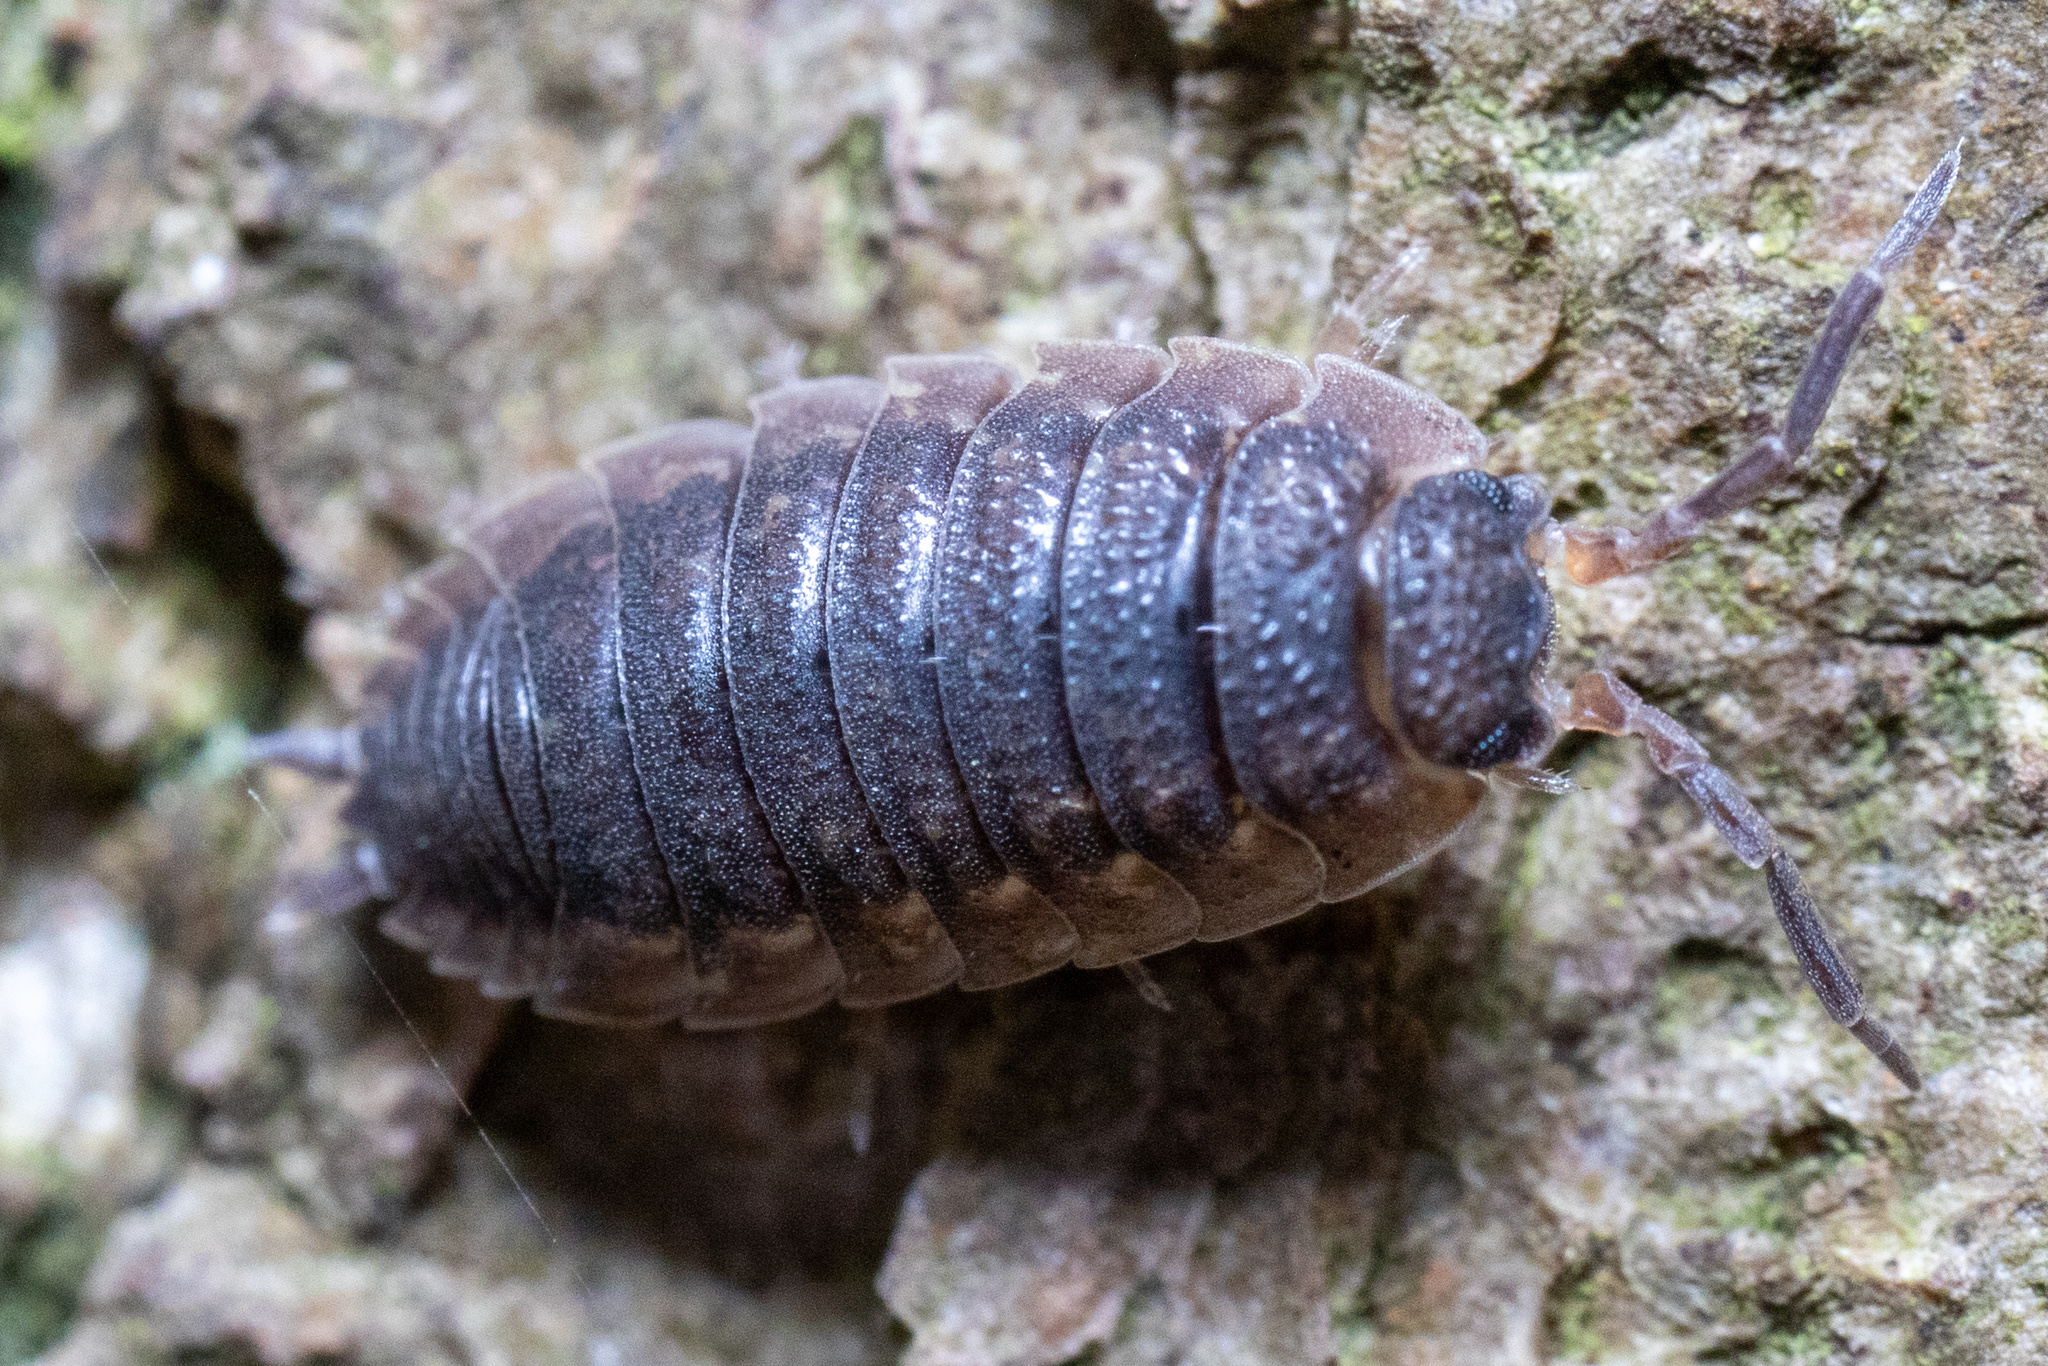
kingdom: Animalia
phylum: Arthropoda
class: Malacostraca
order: Isopoda
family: Porcellionidae
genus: Porcellio
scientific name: Porcellio scaber
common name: Common rough woodlouse
